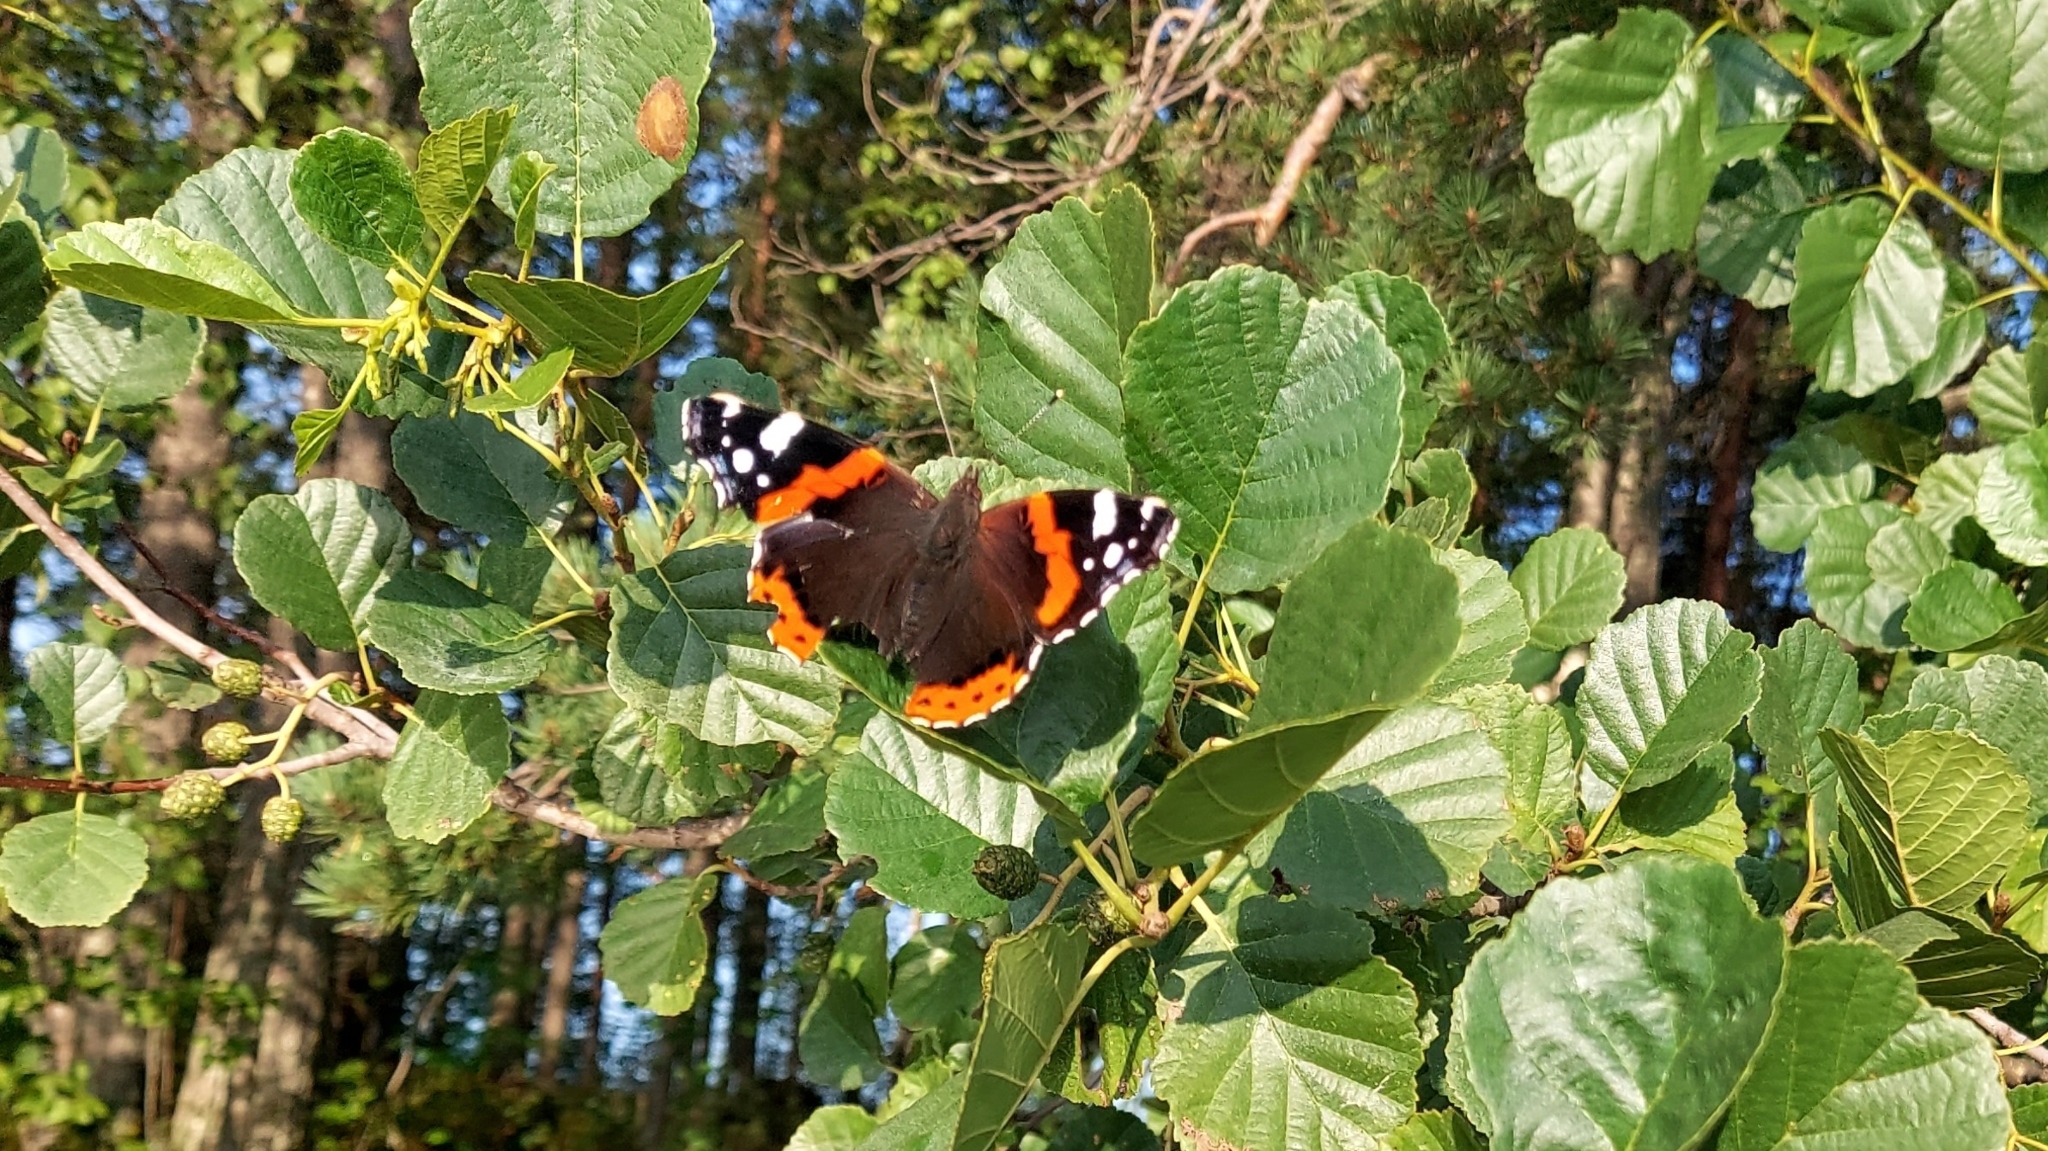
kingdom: Animalia
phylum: Arthropoda
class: Insecta
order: Lepidoptera
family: Nymphalidae
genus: Vanessa
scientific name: Vanessa atalanta
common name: Red admiral
